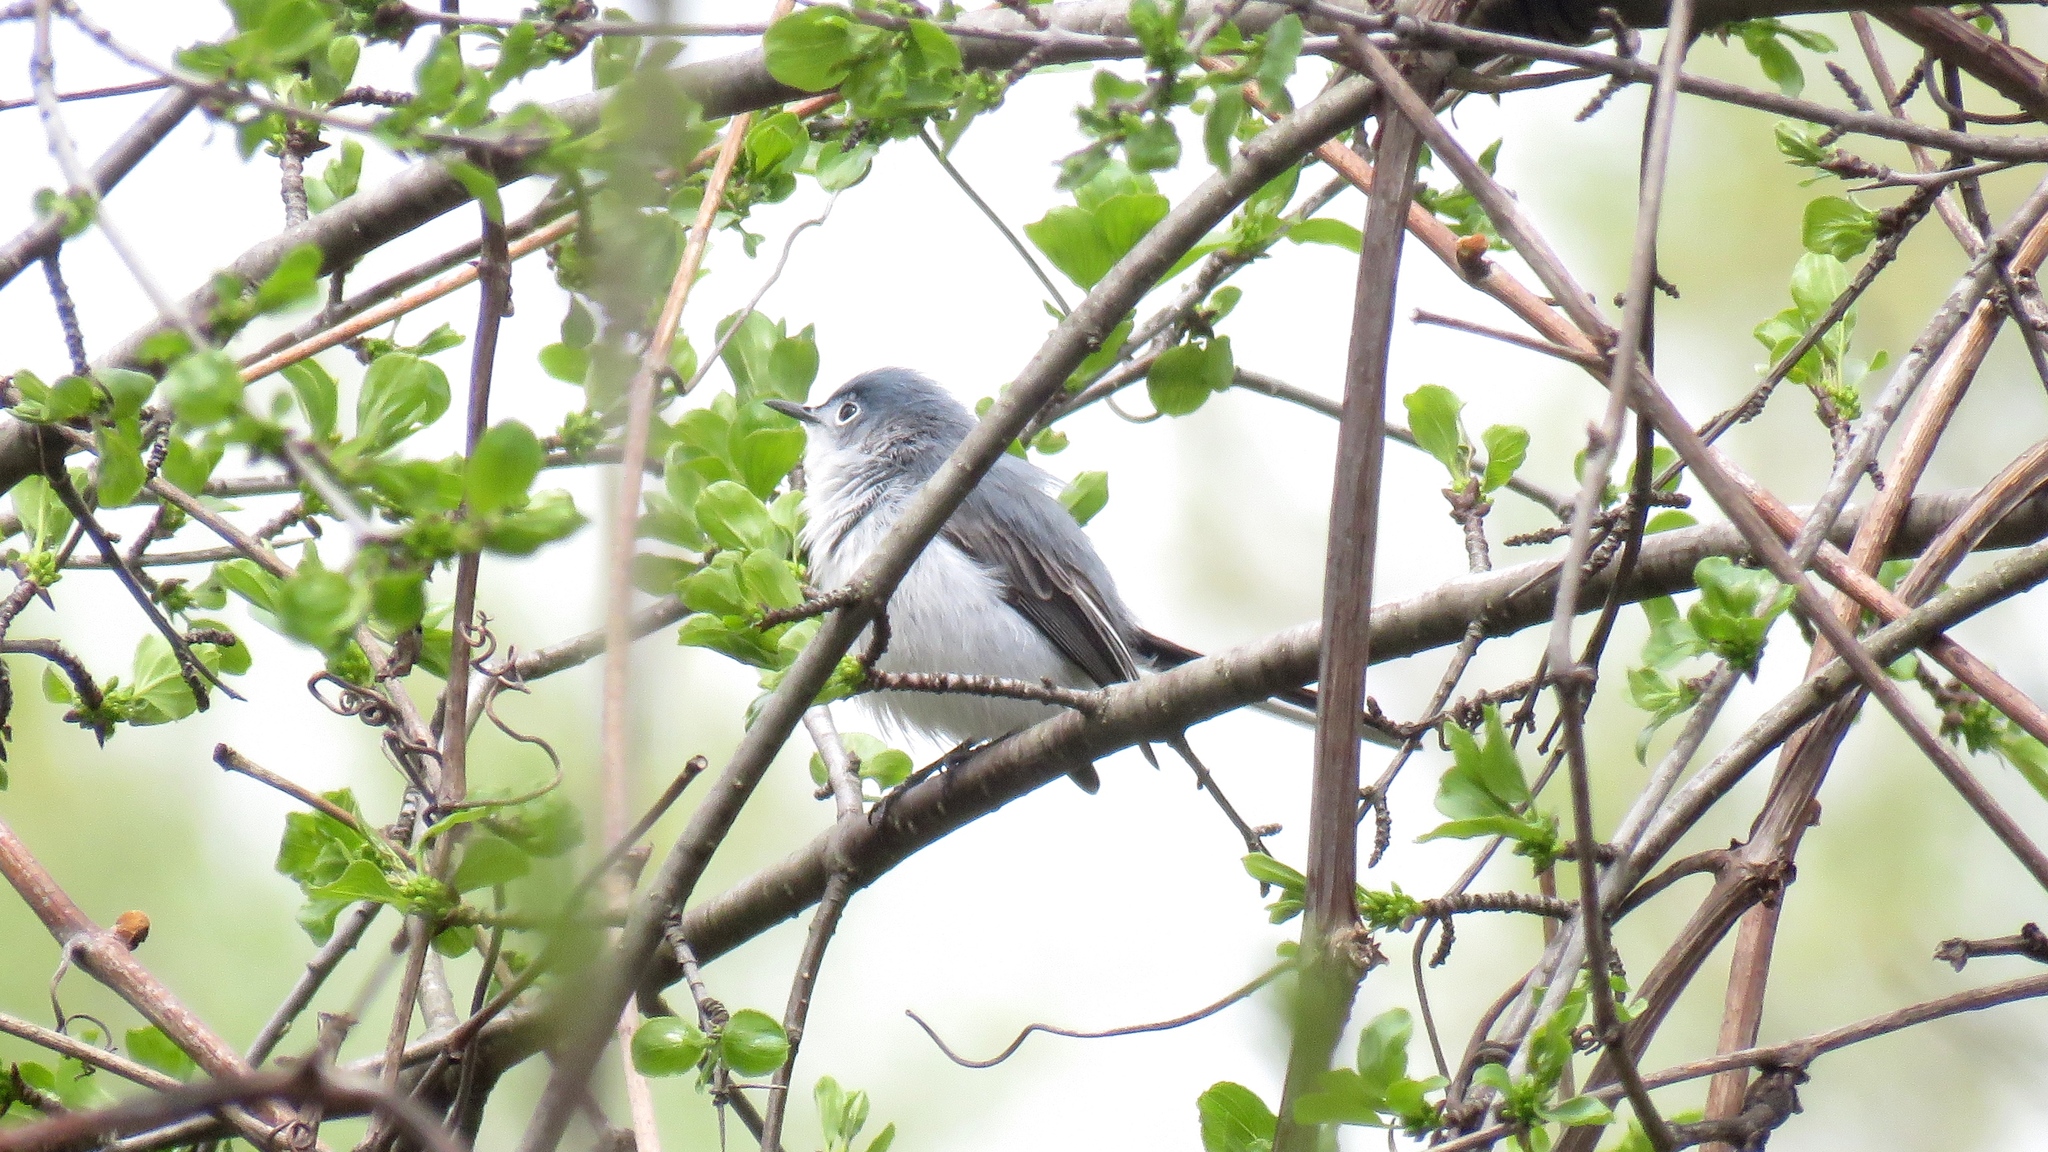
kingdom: Animalia
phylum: Chordata
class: Aves
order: Passeriformes
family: Polioptilidae
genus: Polioptila
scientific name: Polioptila caerulea
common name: Blue-gray gnatcatcher
